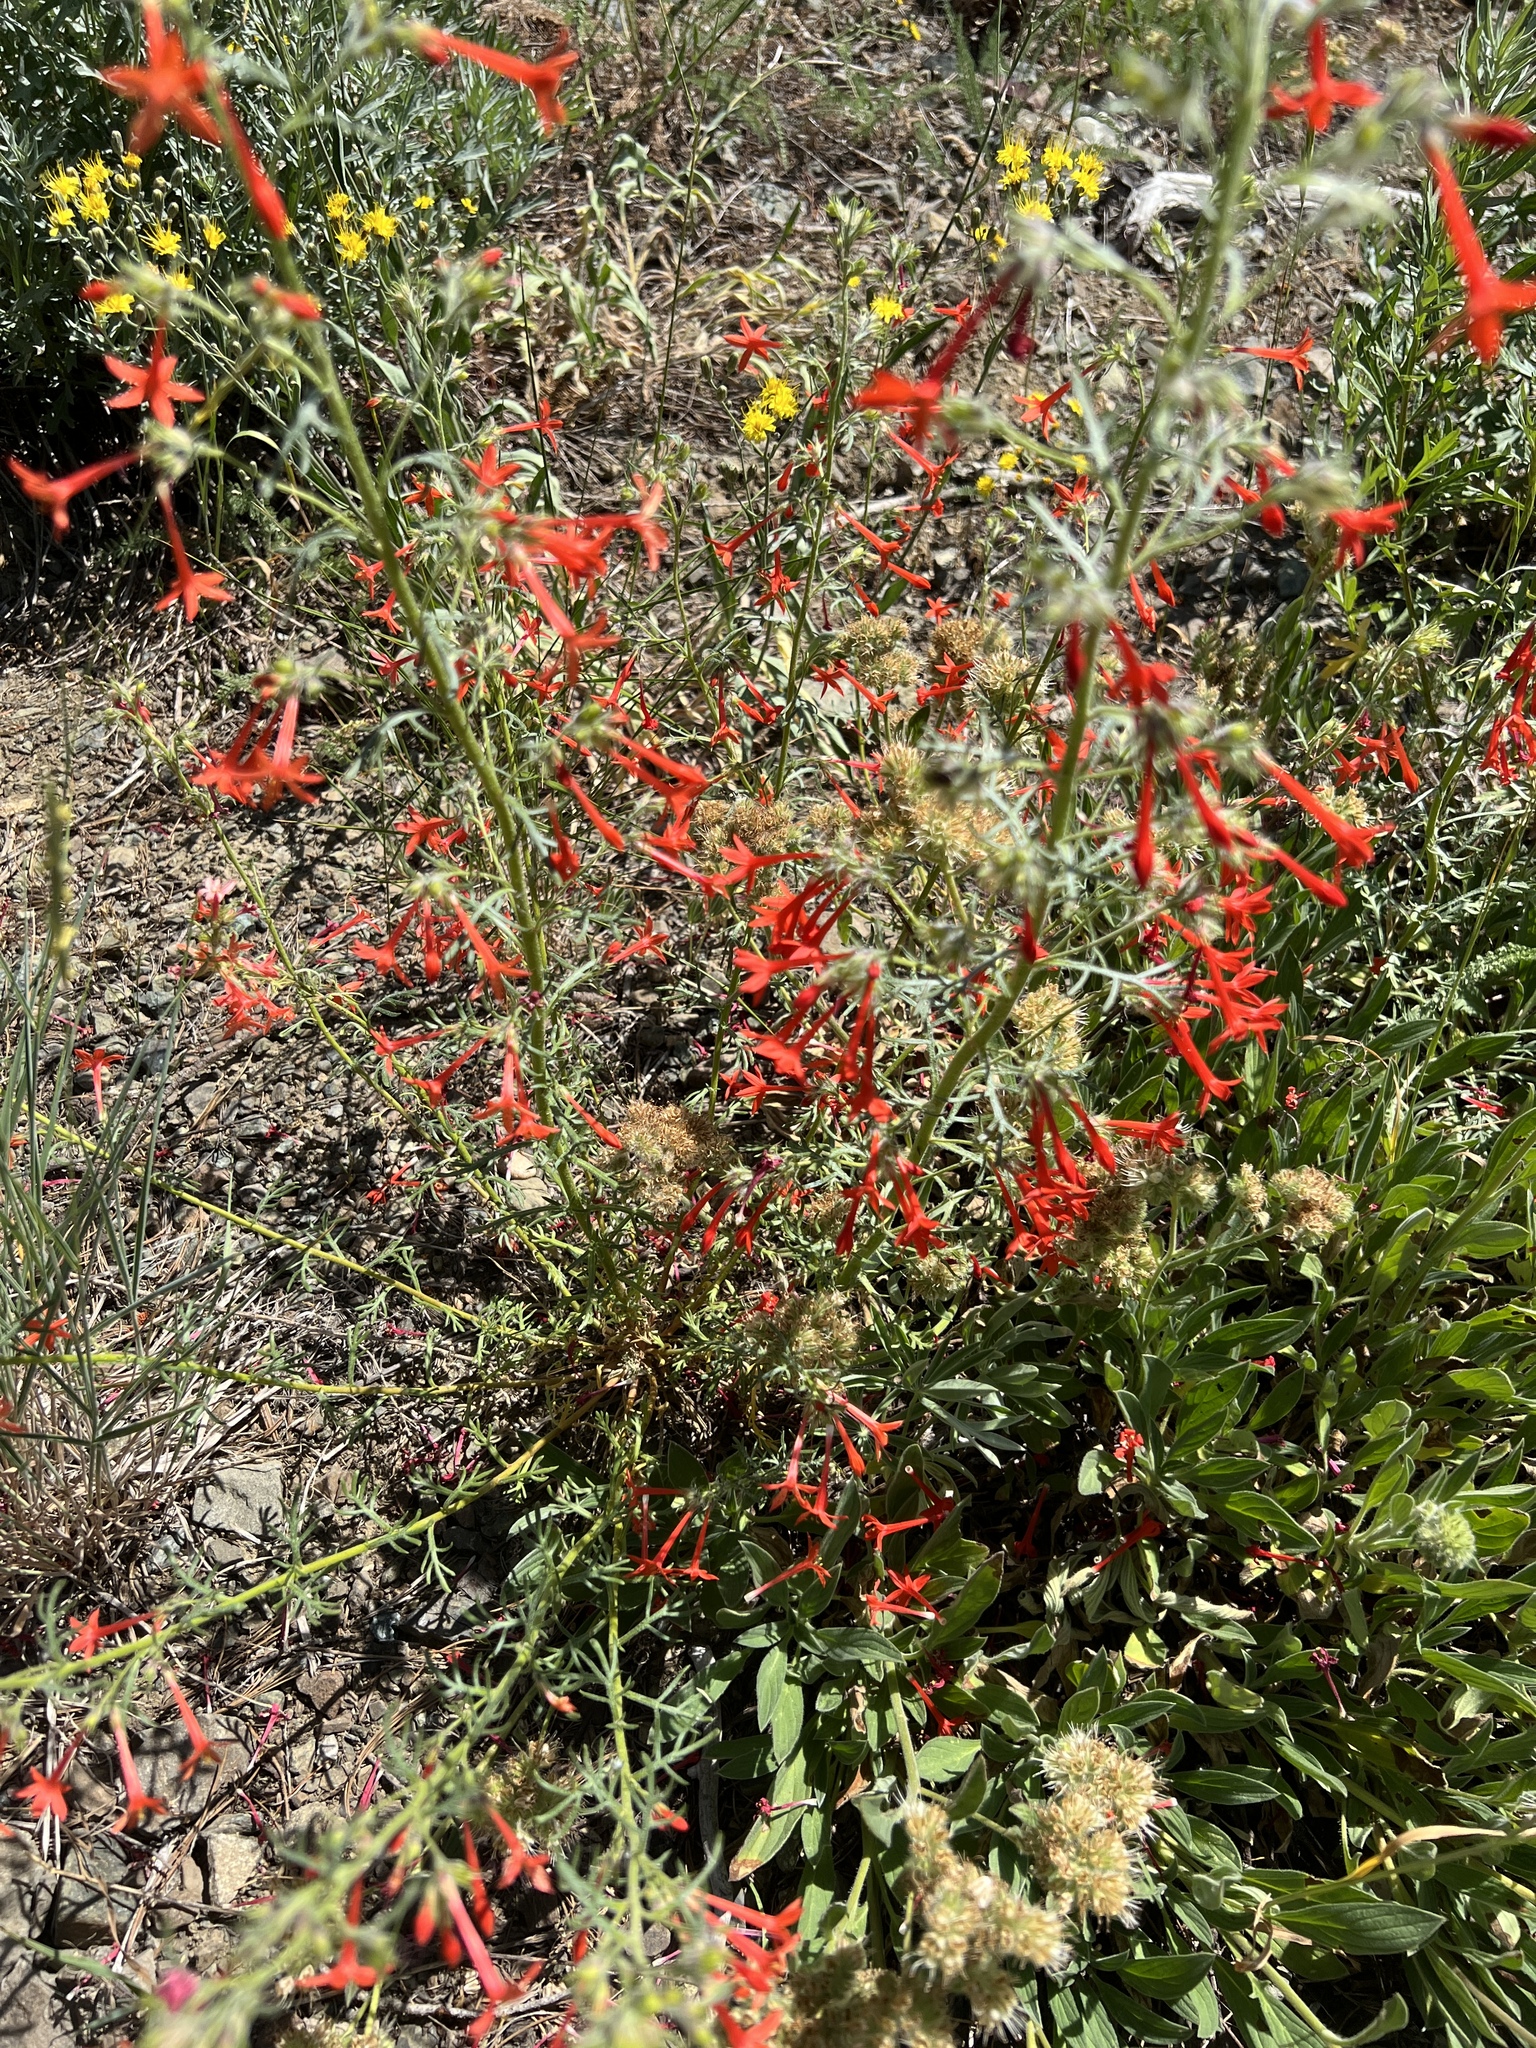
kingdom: Plantae
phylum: Tracheophyta
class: Magnoliopsida
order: Ericales
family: Polemoniaceae
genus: Ipomopsis
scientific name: Ipomopsis aggregata
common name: Scarlet gilia
